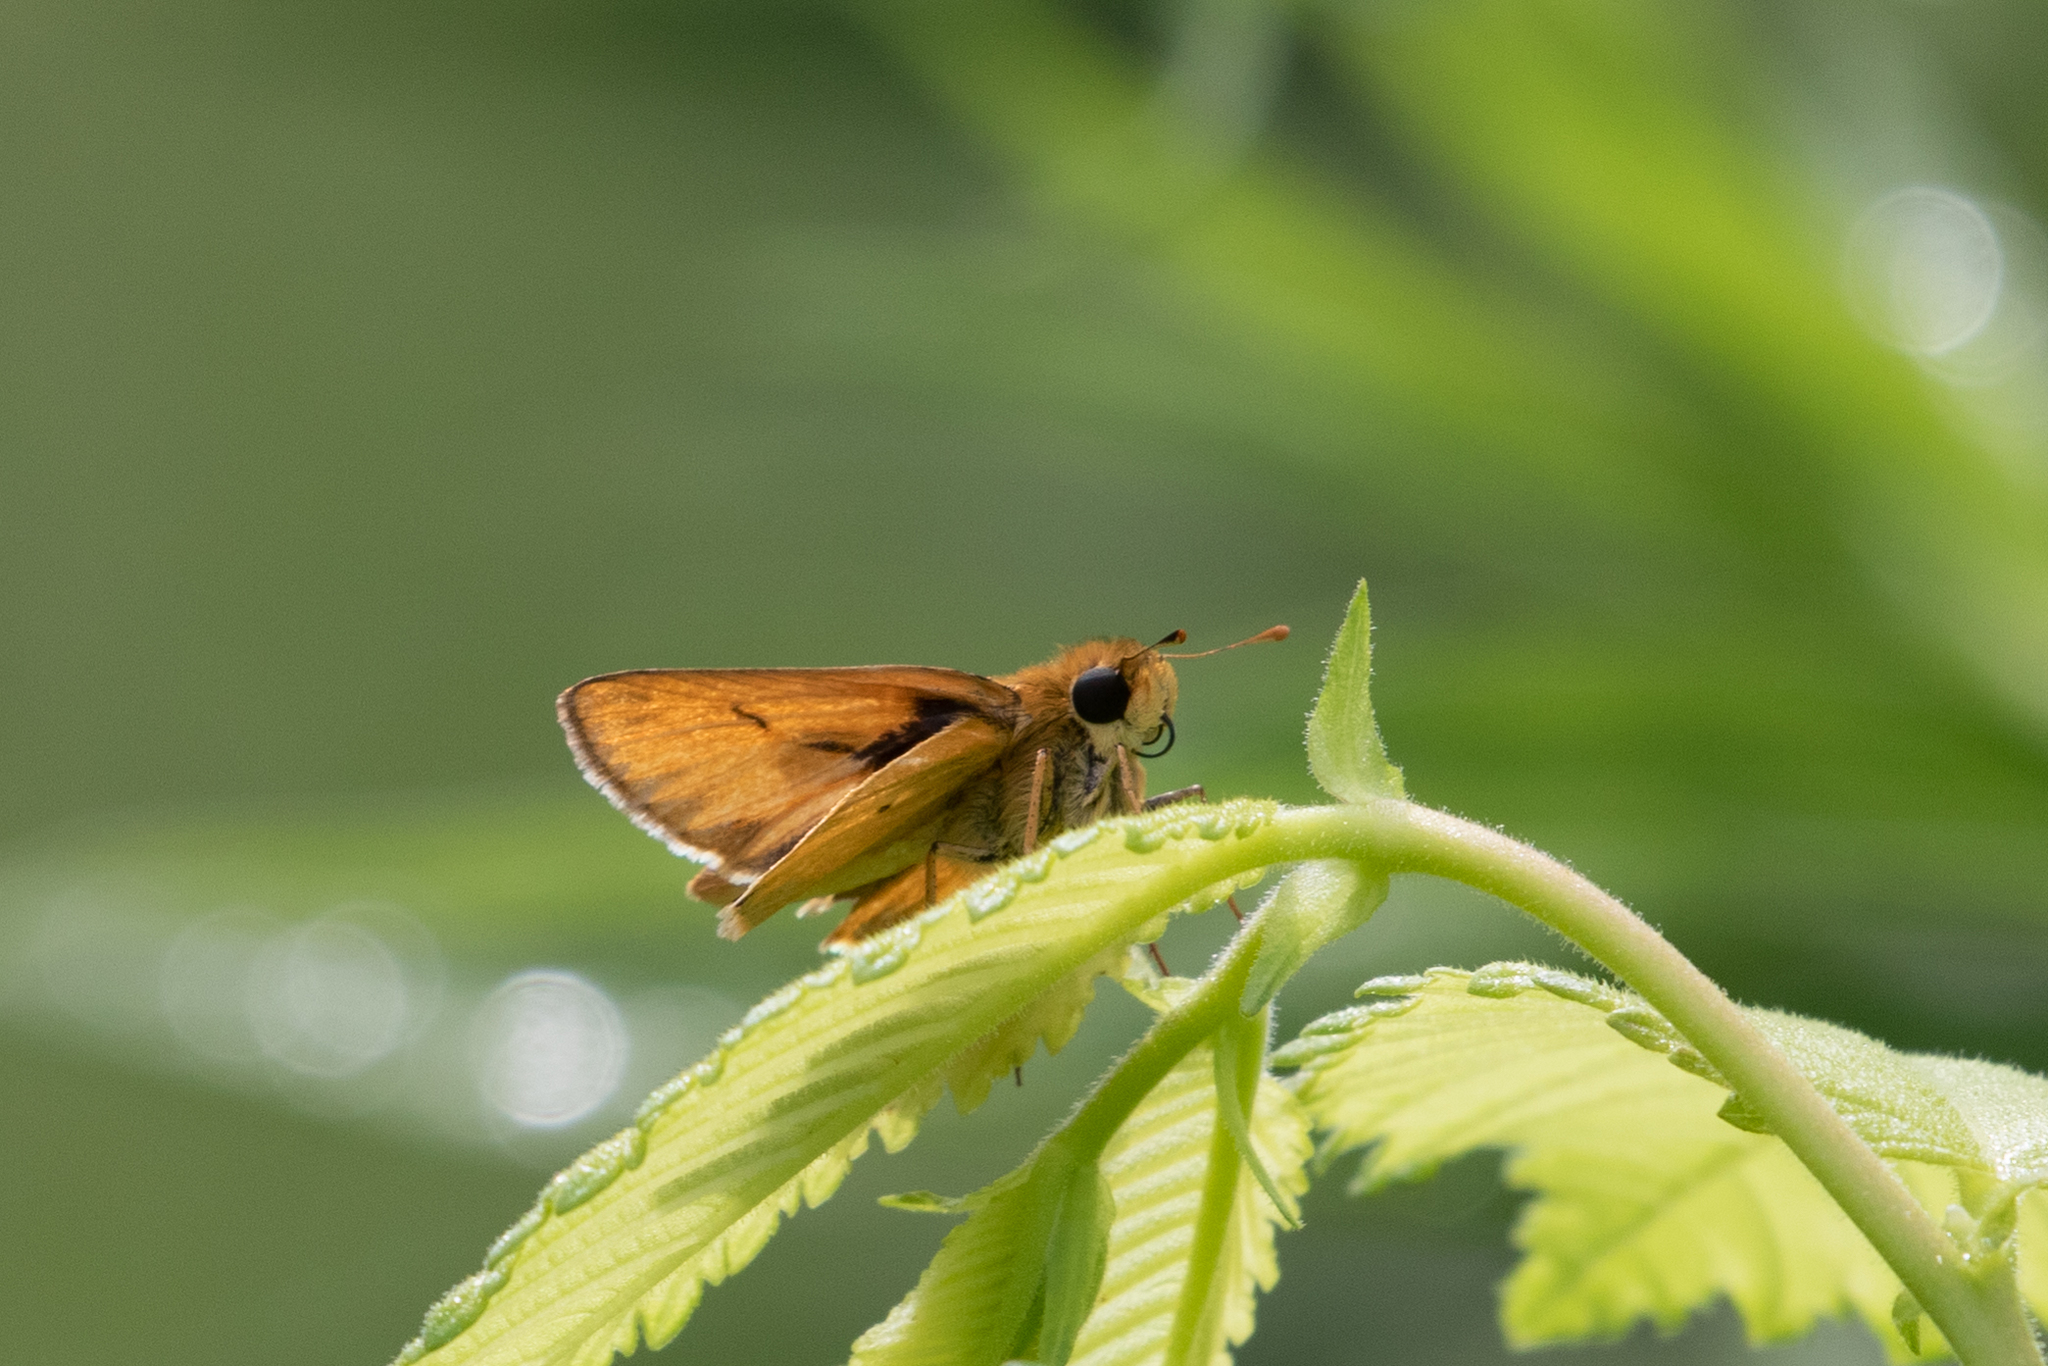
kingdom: Animalia
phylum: Arthropoda
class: Insecta
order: Lepidoptera
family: Hesperiidae
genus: Hylephila
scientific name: Hylephila phyleus
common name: Fiery skipper
